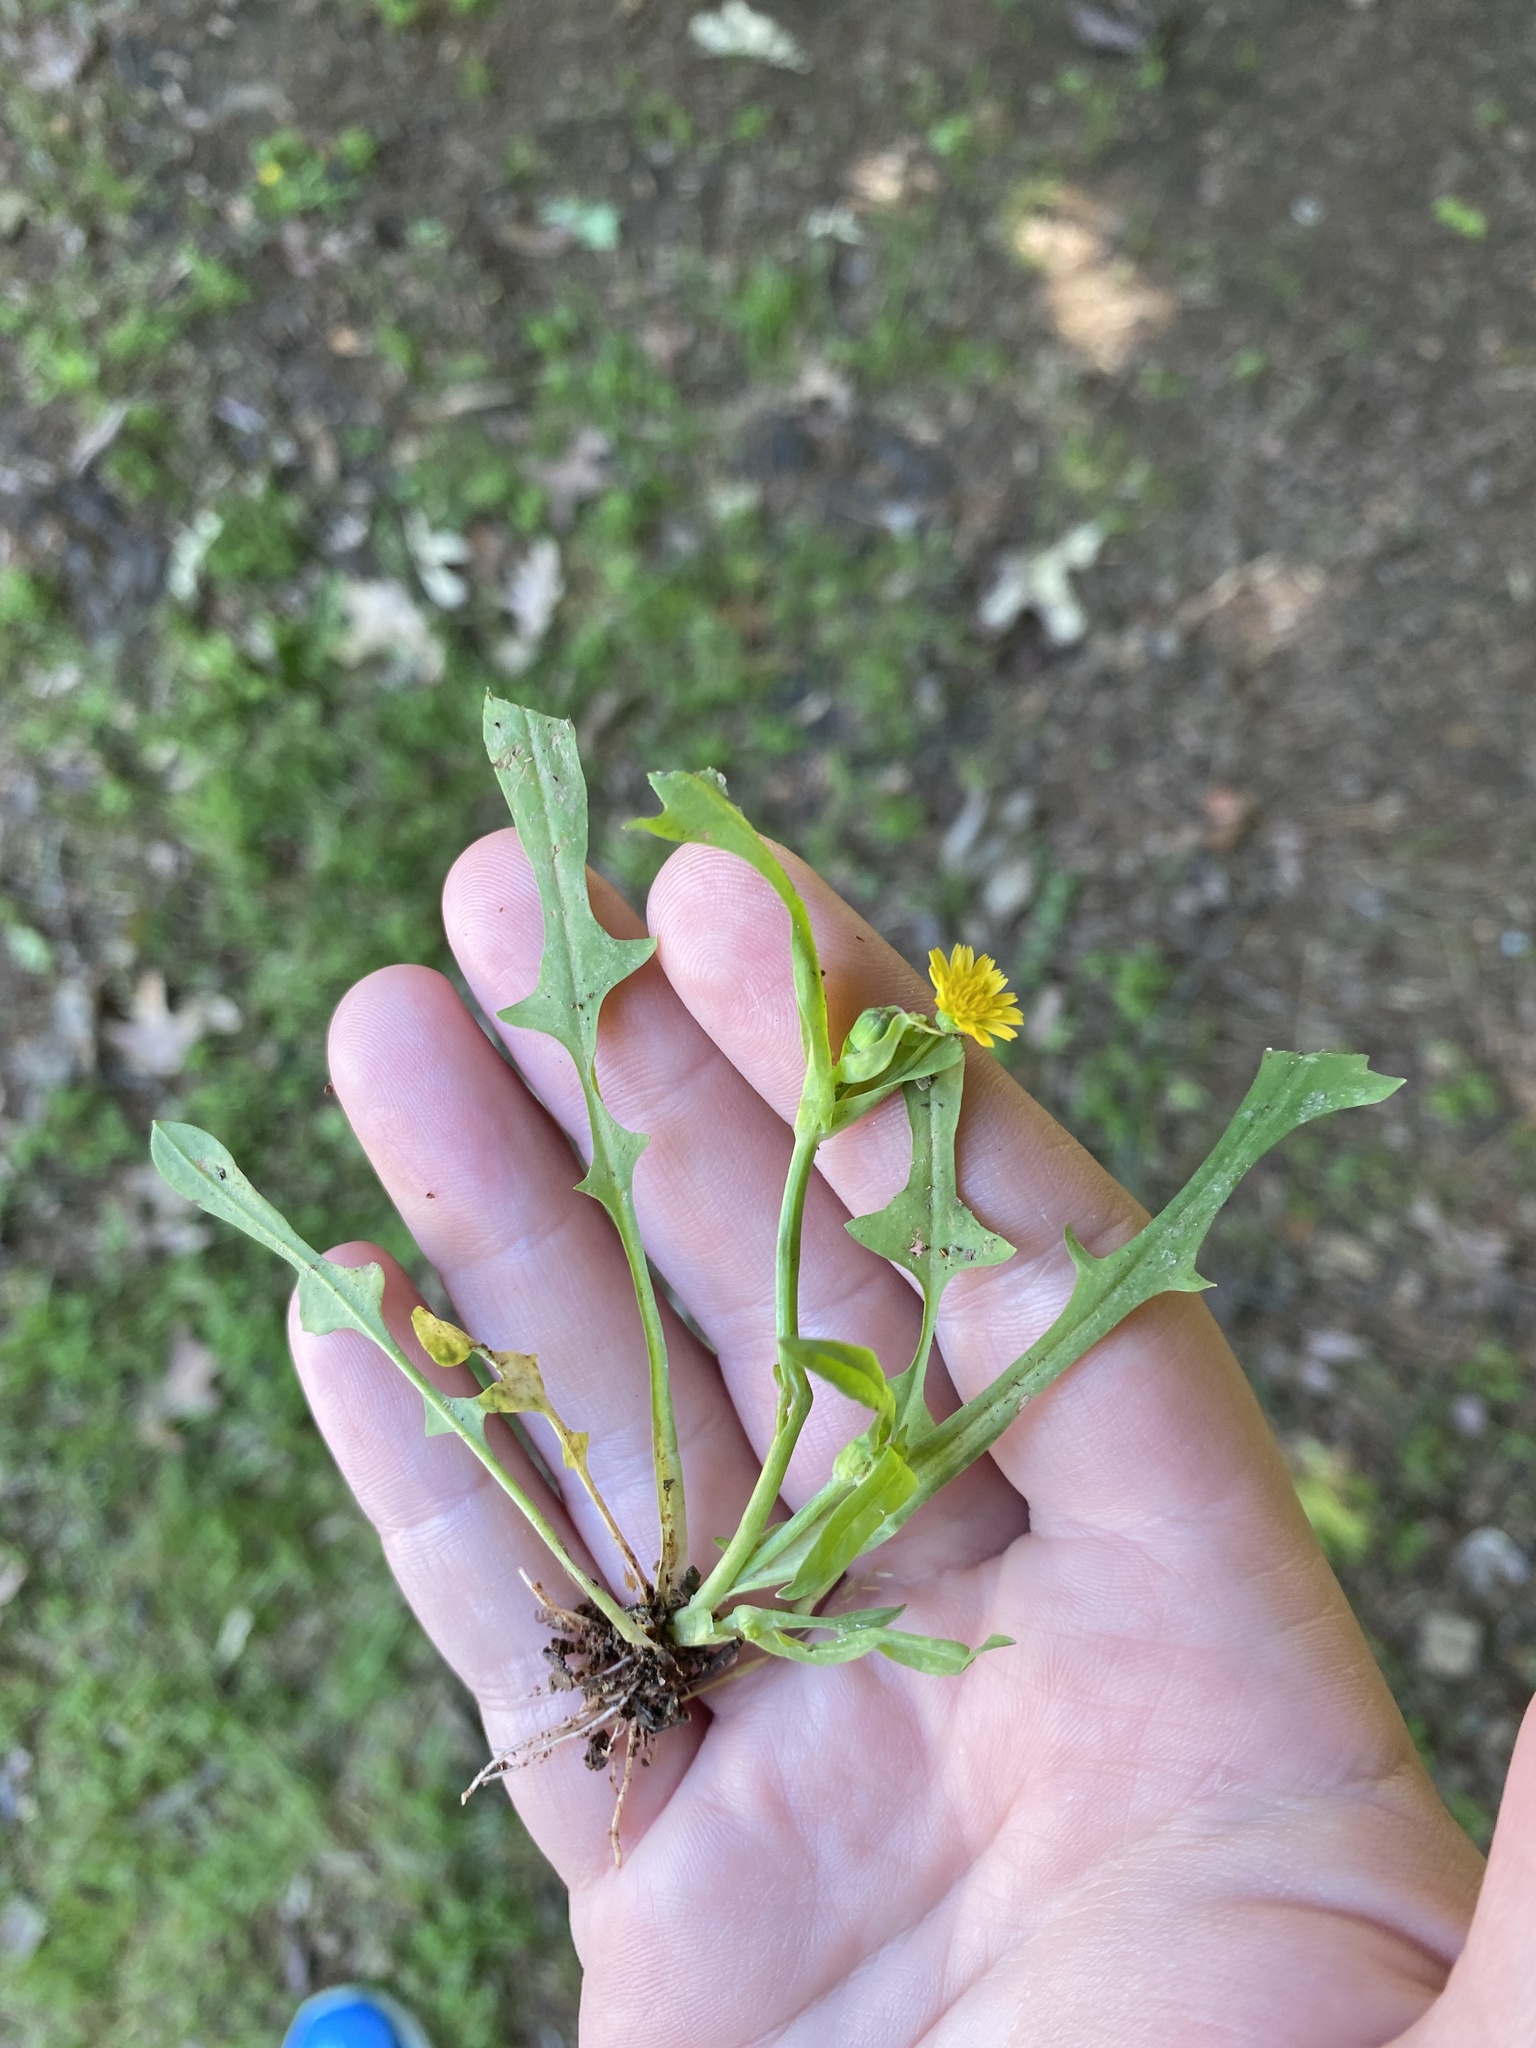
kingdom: Plantae
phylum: Tracheophyta
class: Magnoliopsida
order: Asterales
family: Asteraceae
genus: Krigia
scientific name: Krigia cespitosa
